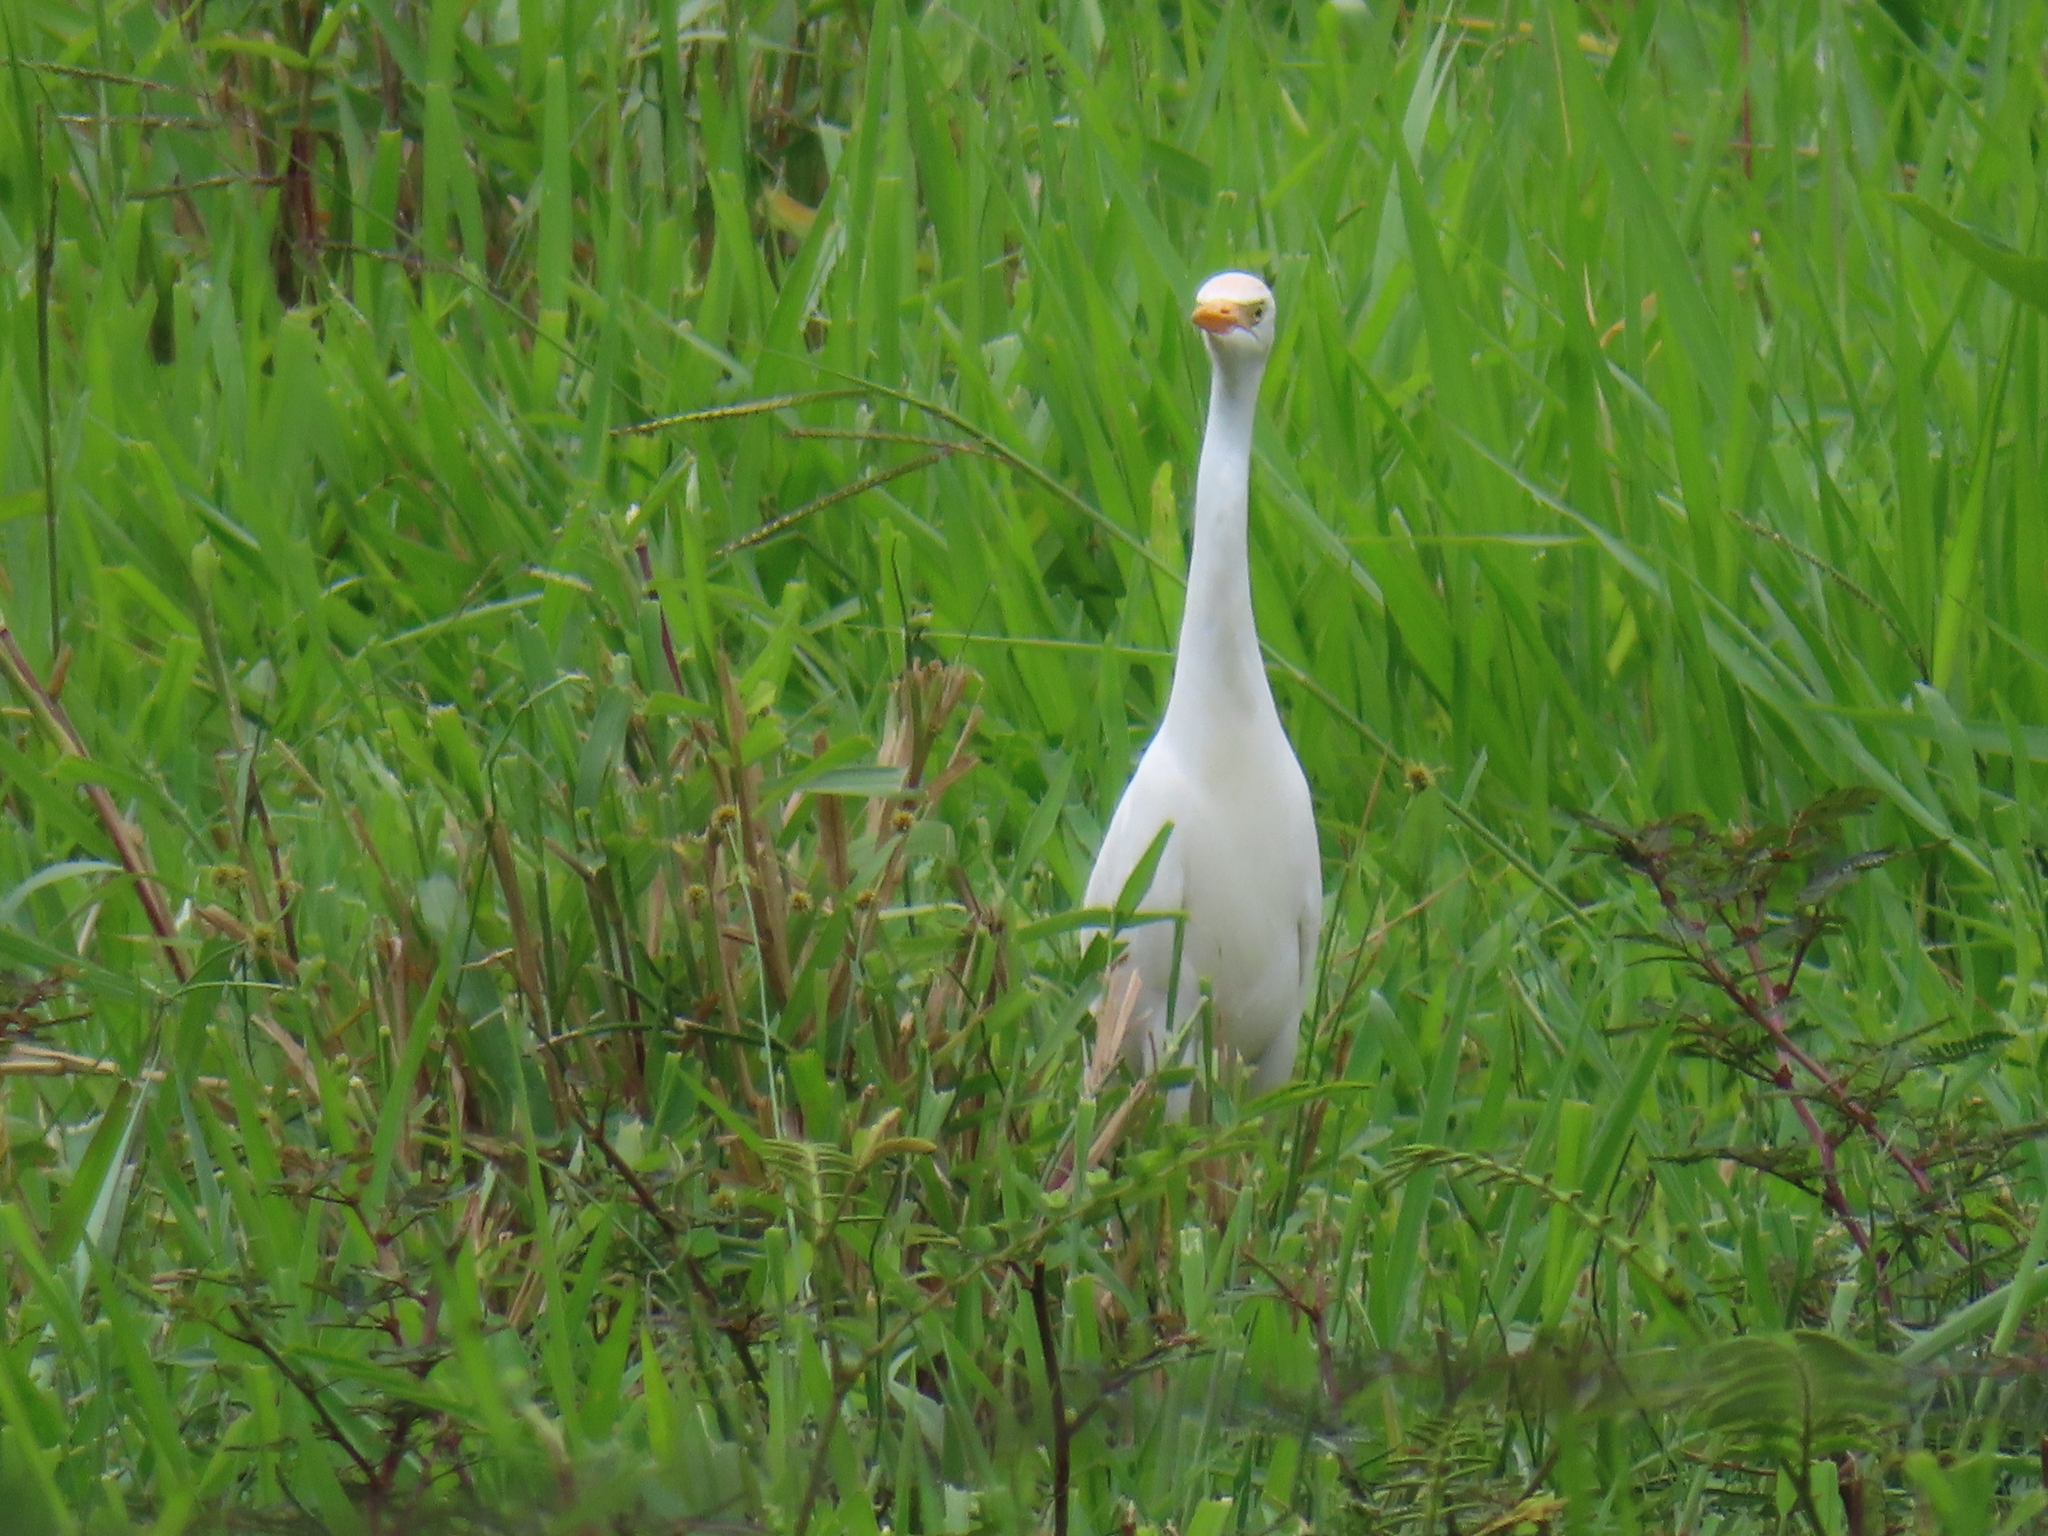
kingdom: Animalia
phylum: Chordata
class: Aves
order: Pelecaniformes
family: Ardeidae
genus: Bubulcus
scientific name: Bubulcus ibis
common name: Cattle egret
